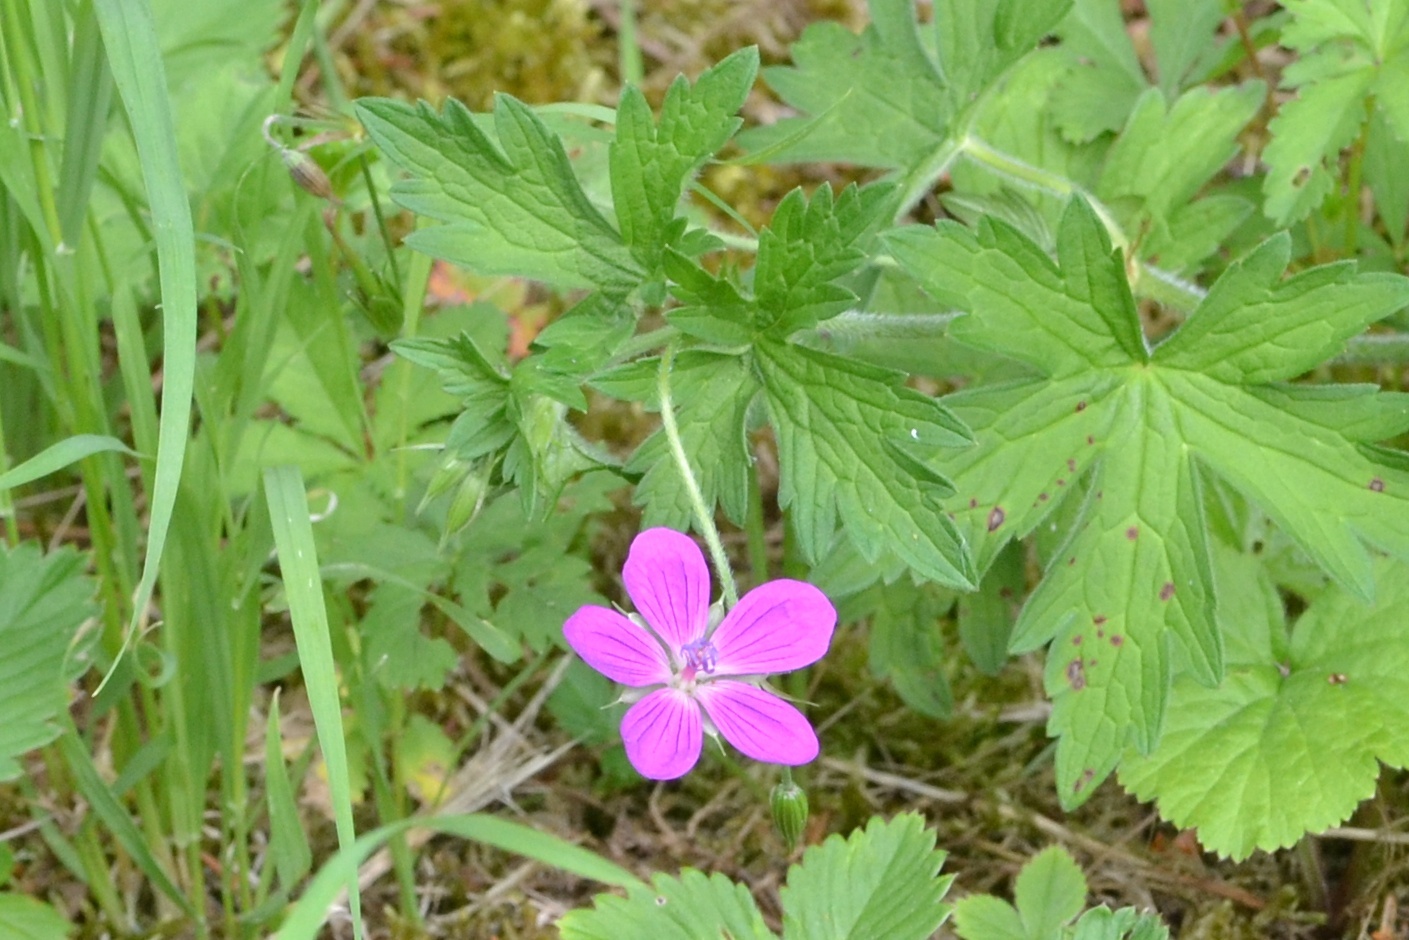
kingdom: Plantae
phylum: Tracheophyta
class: Magnoliopsida
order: Geraniales
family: Geraniaceae
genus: Geranium
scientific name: Geranium palustre
